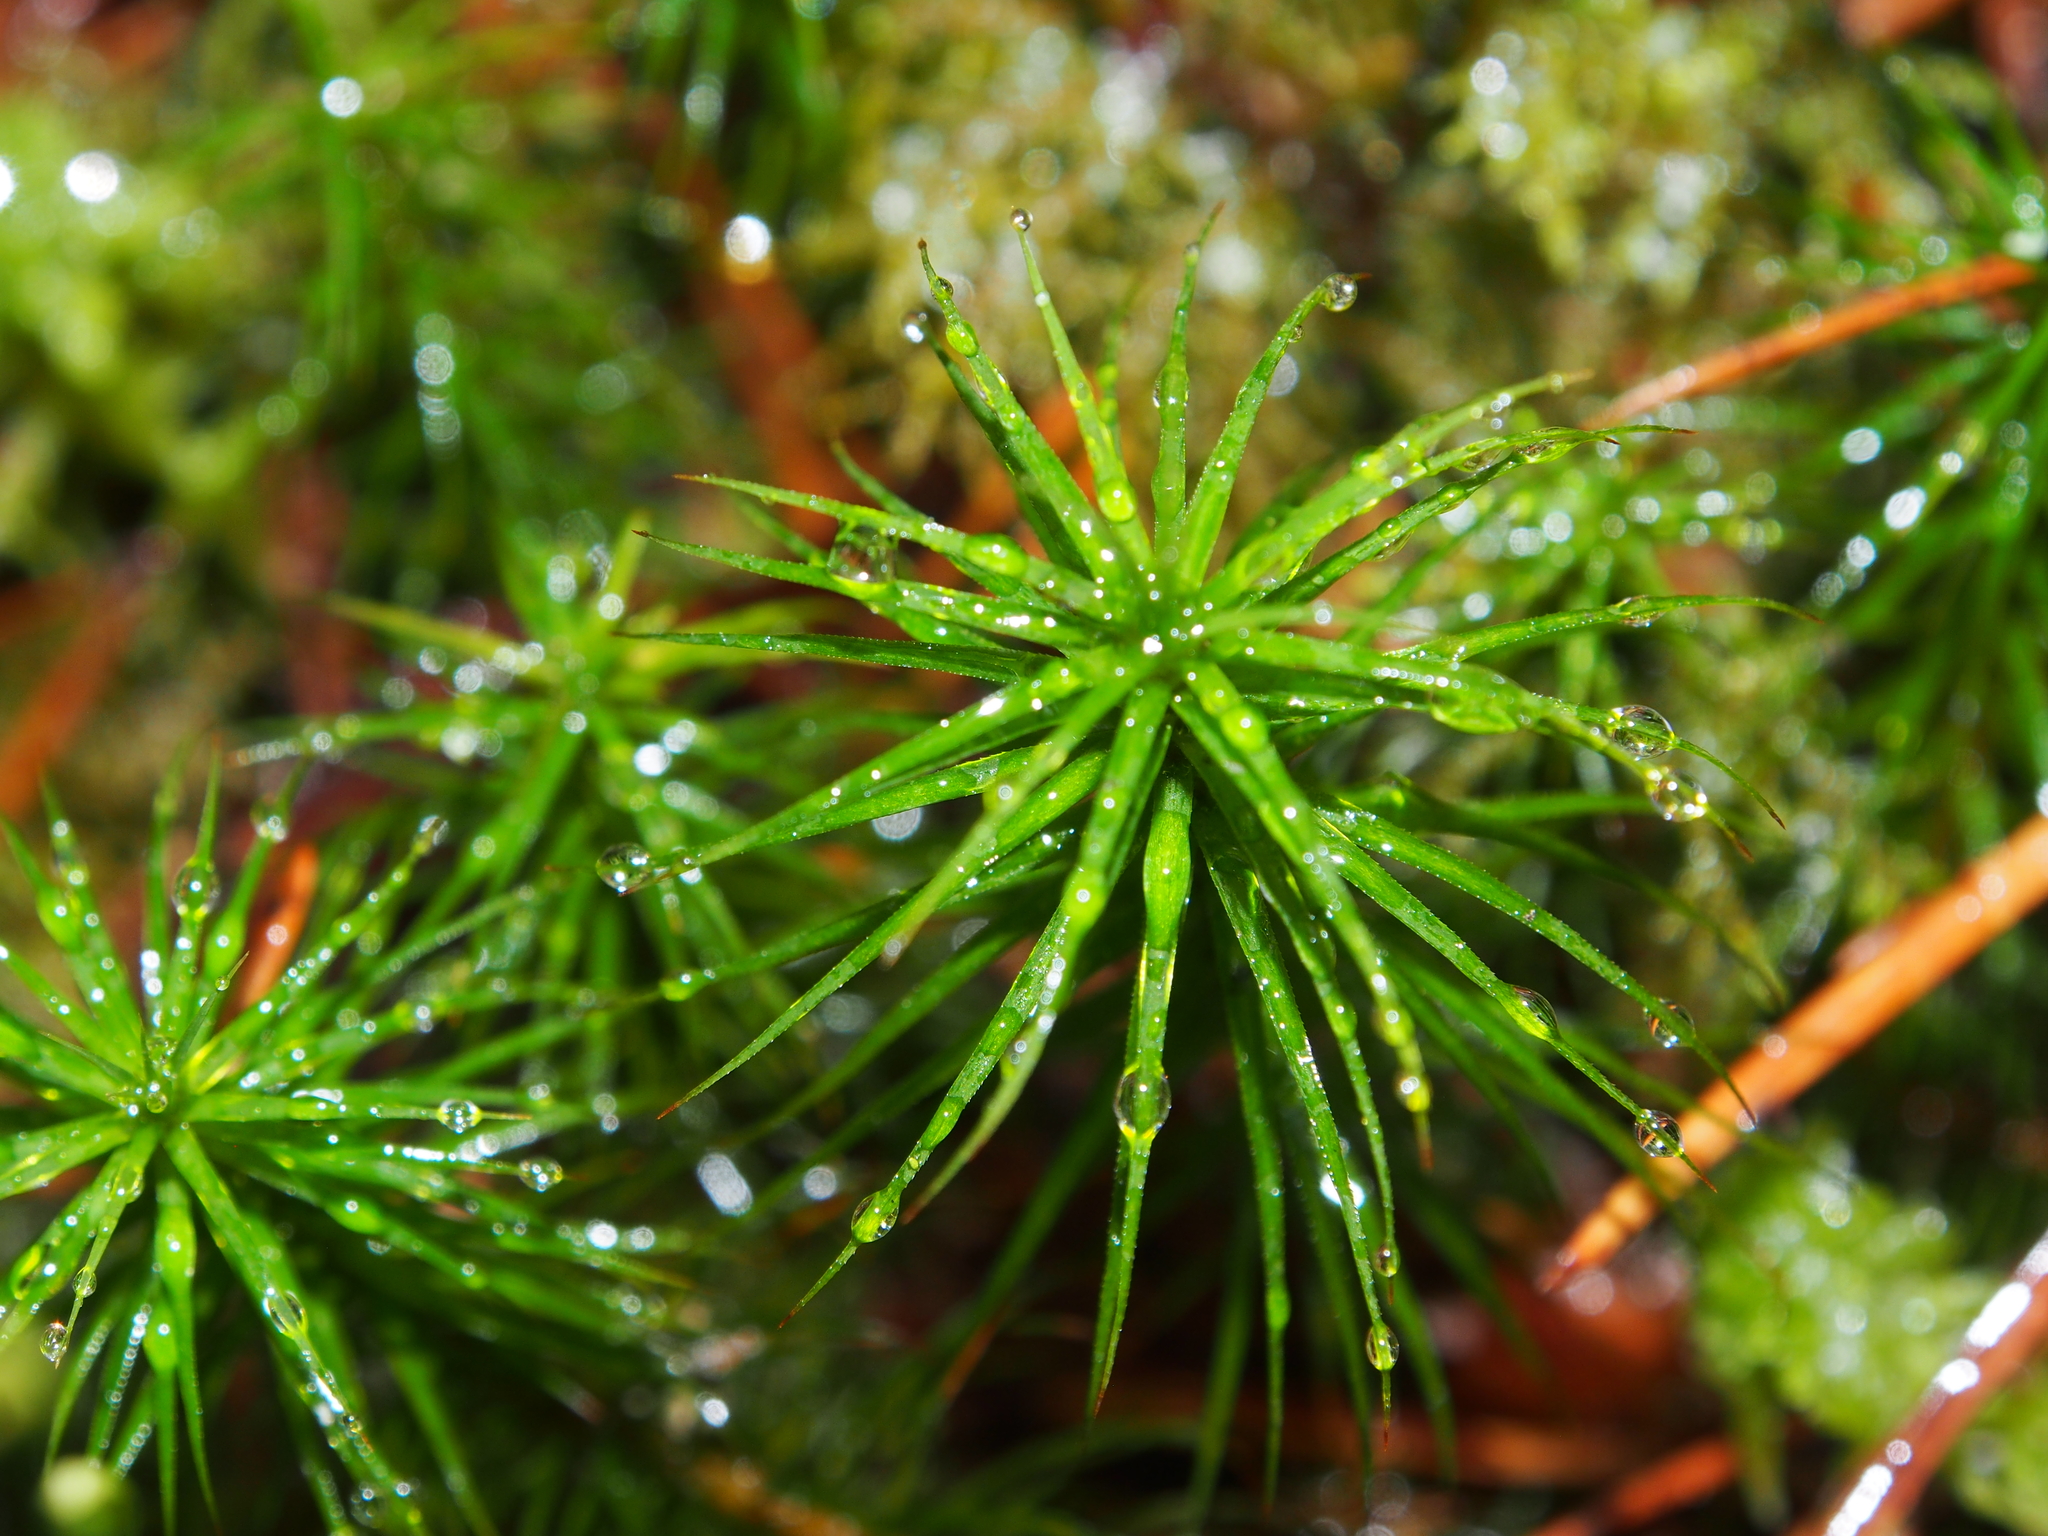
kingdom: Plantae
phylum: Bryophyta
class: Polytrichopsida
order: Polytrichales
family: Polytrichaceae
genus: Polytrichum
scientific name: Polytrichum commune
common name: Common haircap
